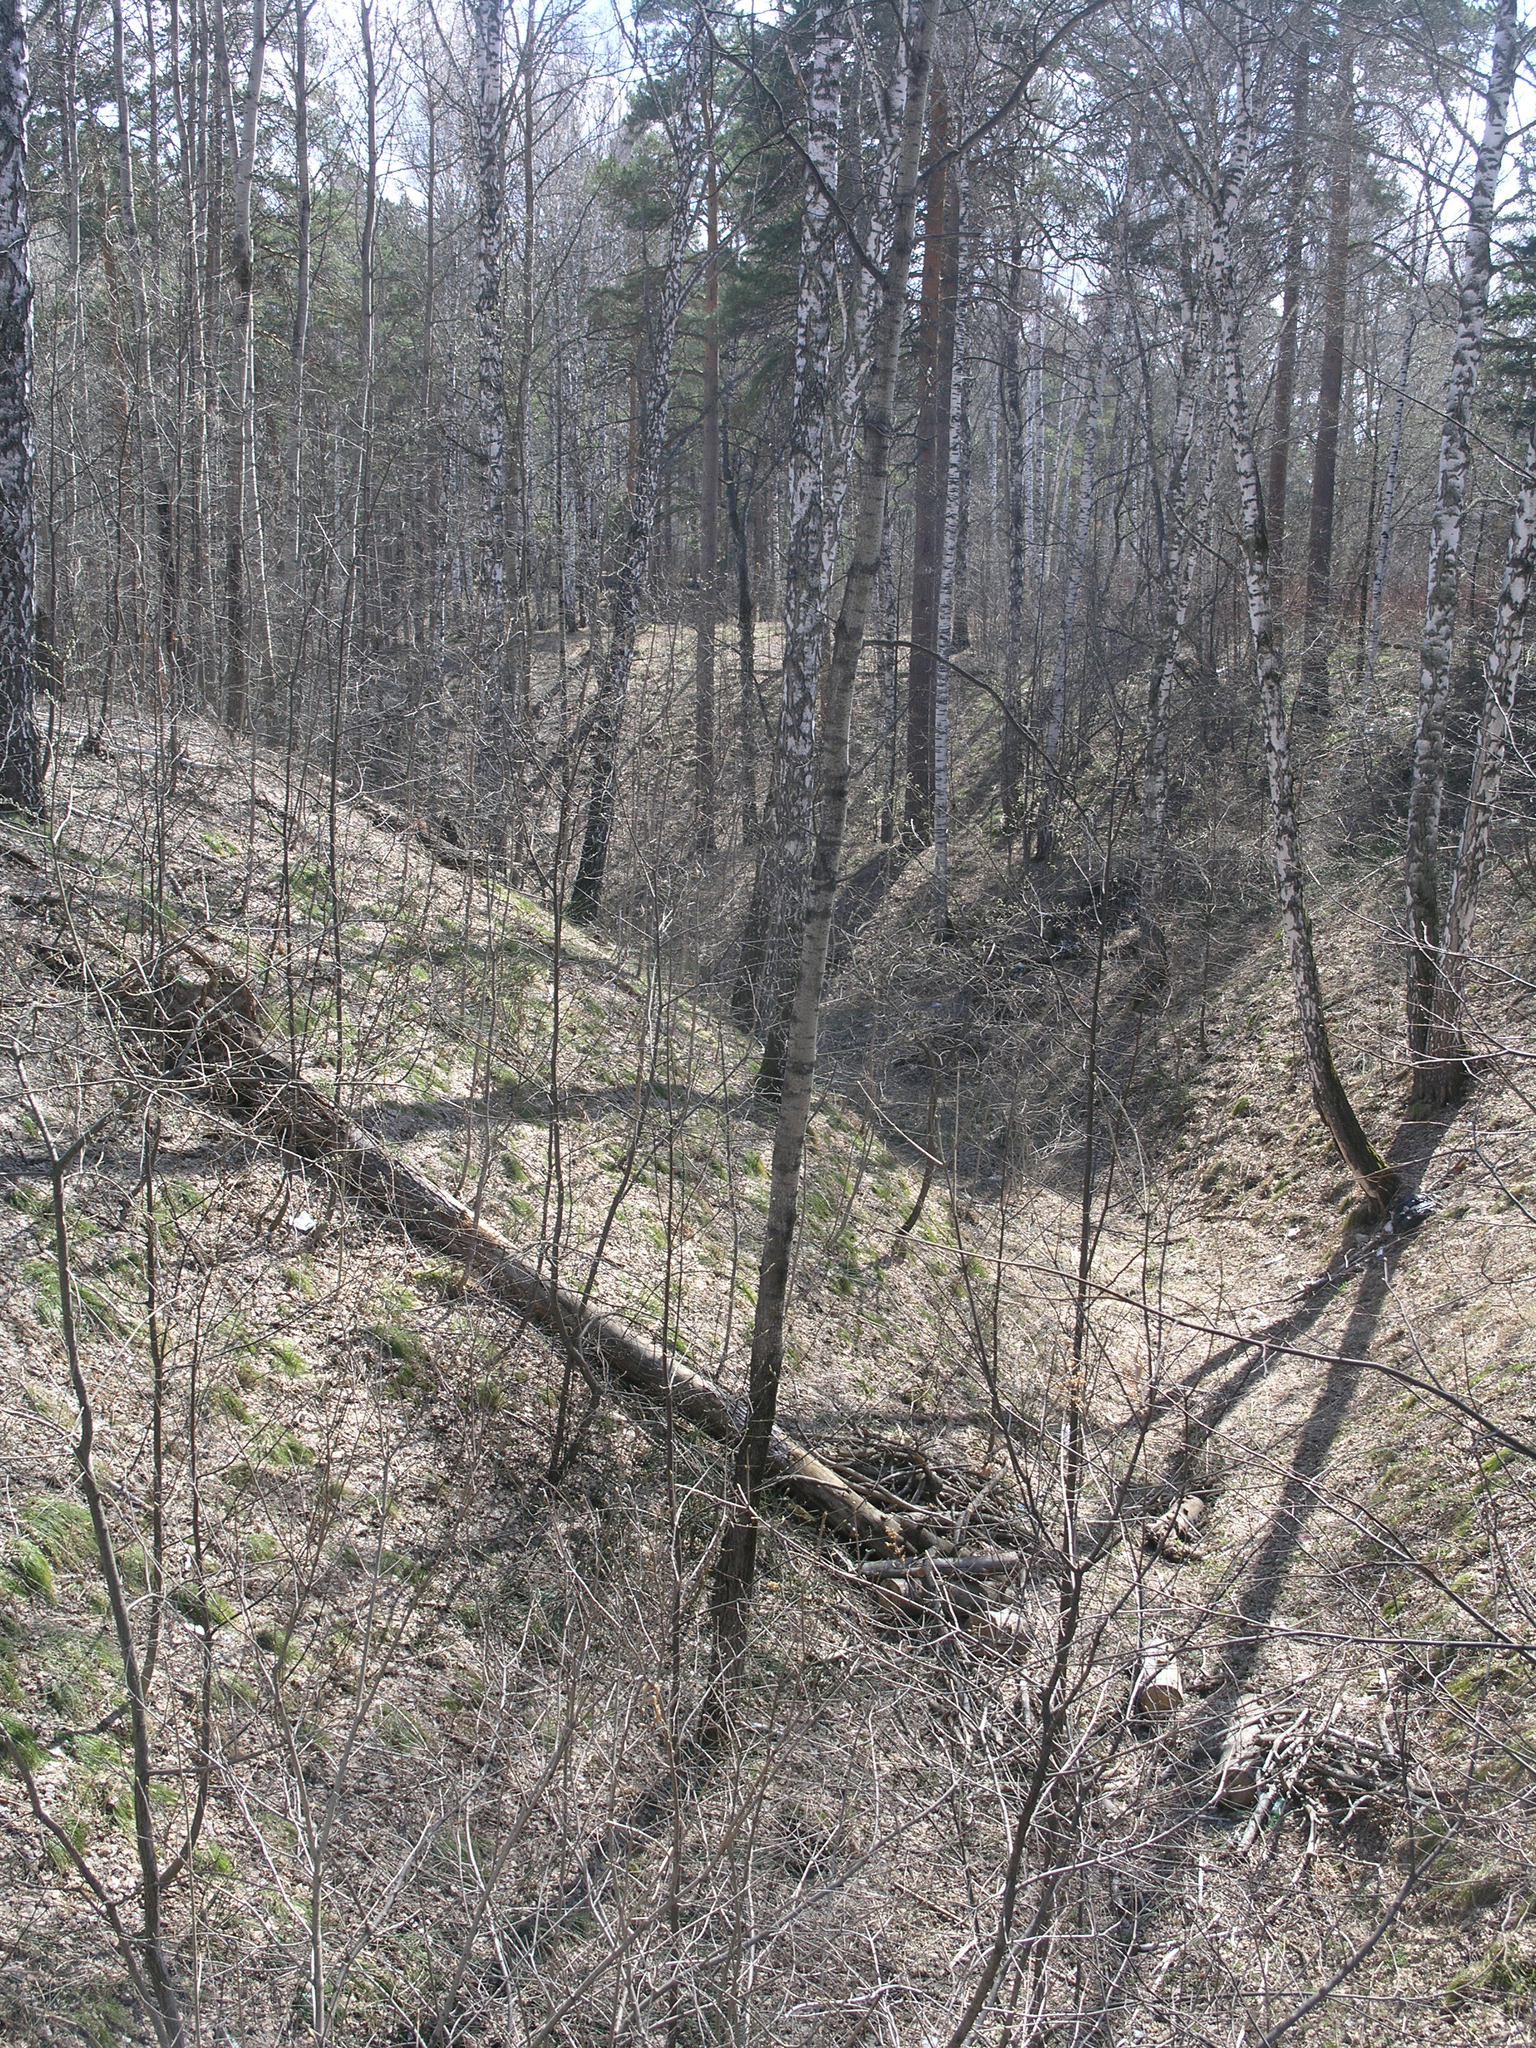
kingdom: Plantae
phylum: Tracheophyta
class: Magnoliopsida
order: Malpighiales
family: Salicaceae
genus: Populus
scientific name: Populus tremula
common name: European aspen
